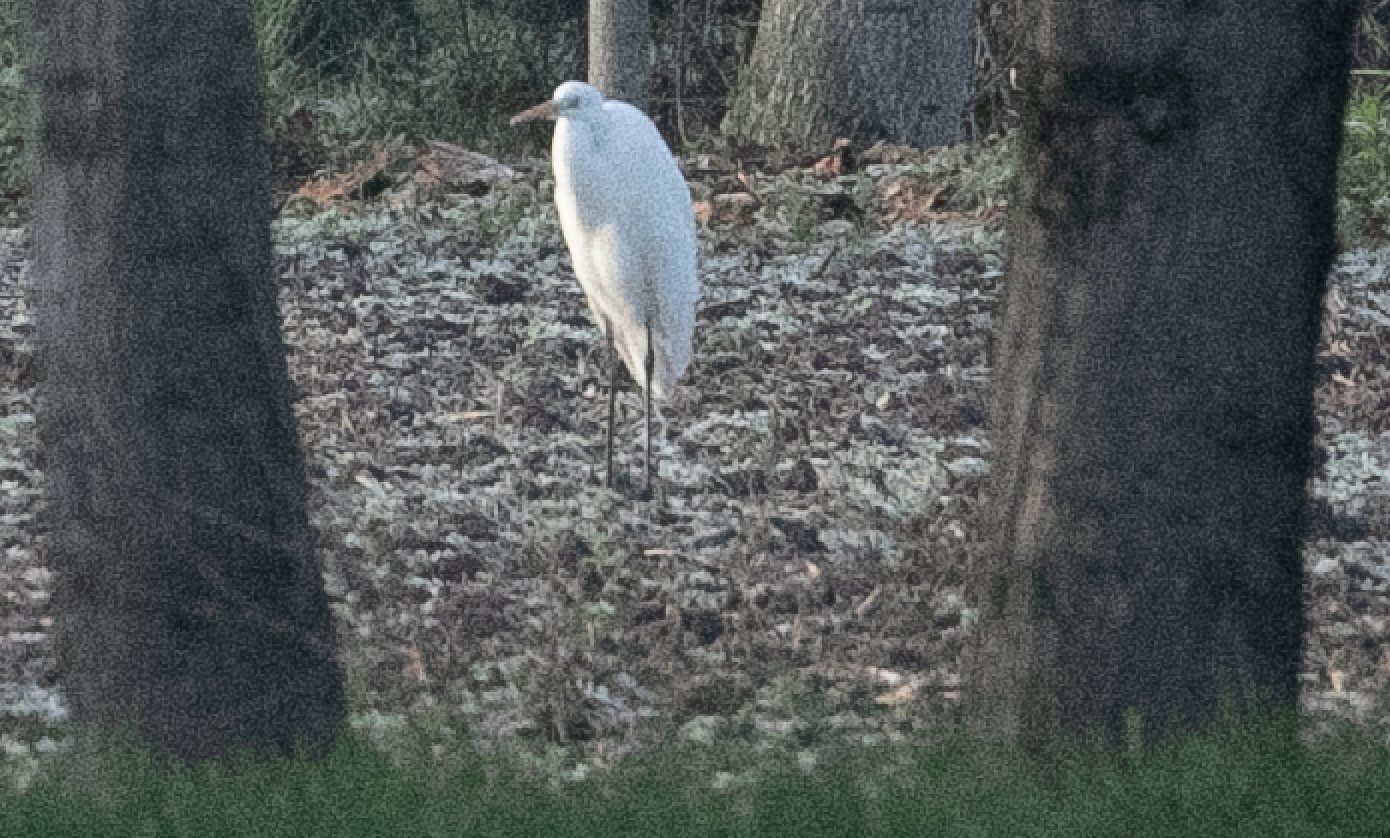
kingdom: Animalia
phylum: Chordata
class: Aves
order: Pelecaniformes
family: Ardeidae
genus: Ardea
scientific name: Ardea alba
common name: Great egret
